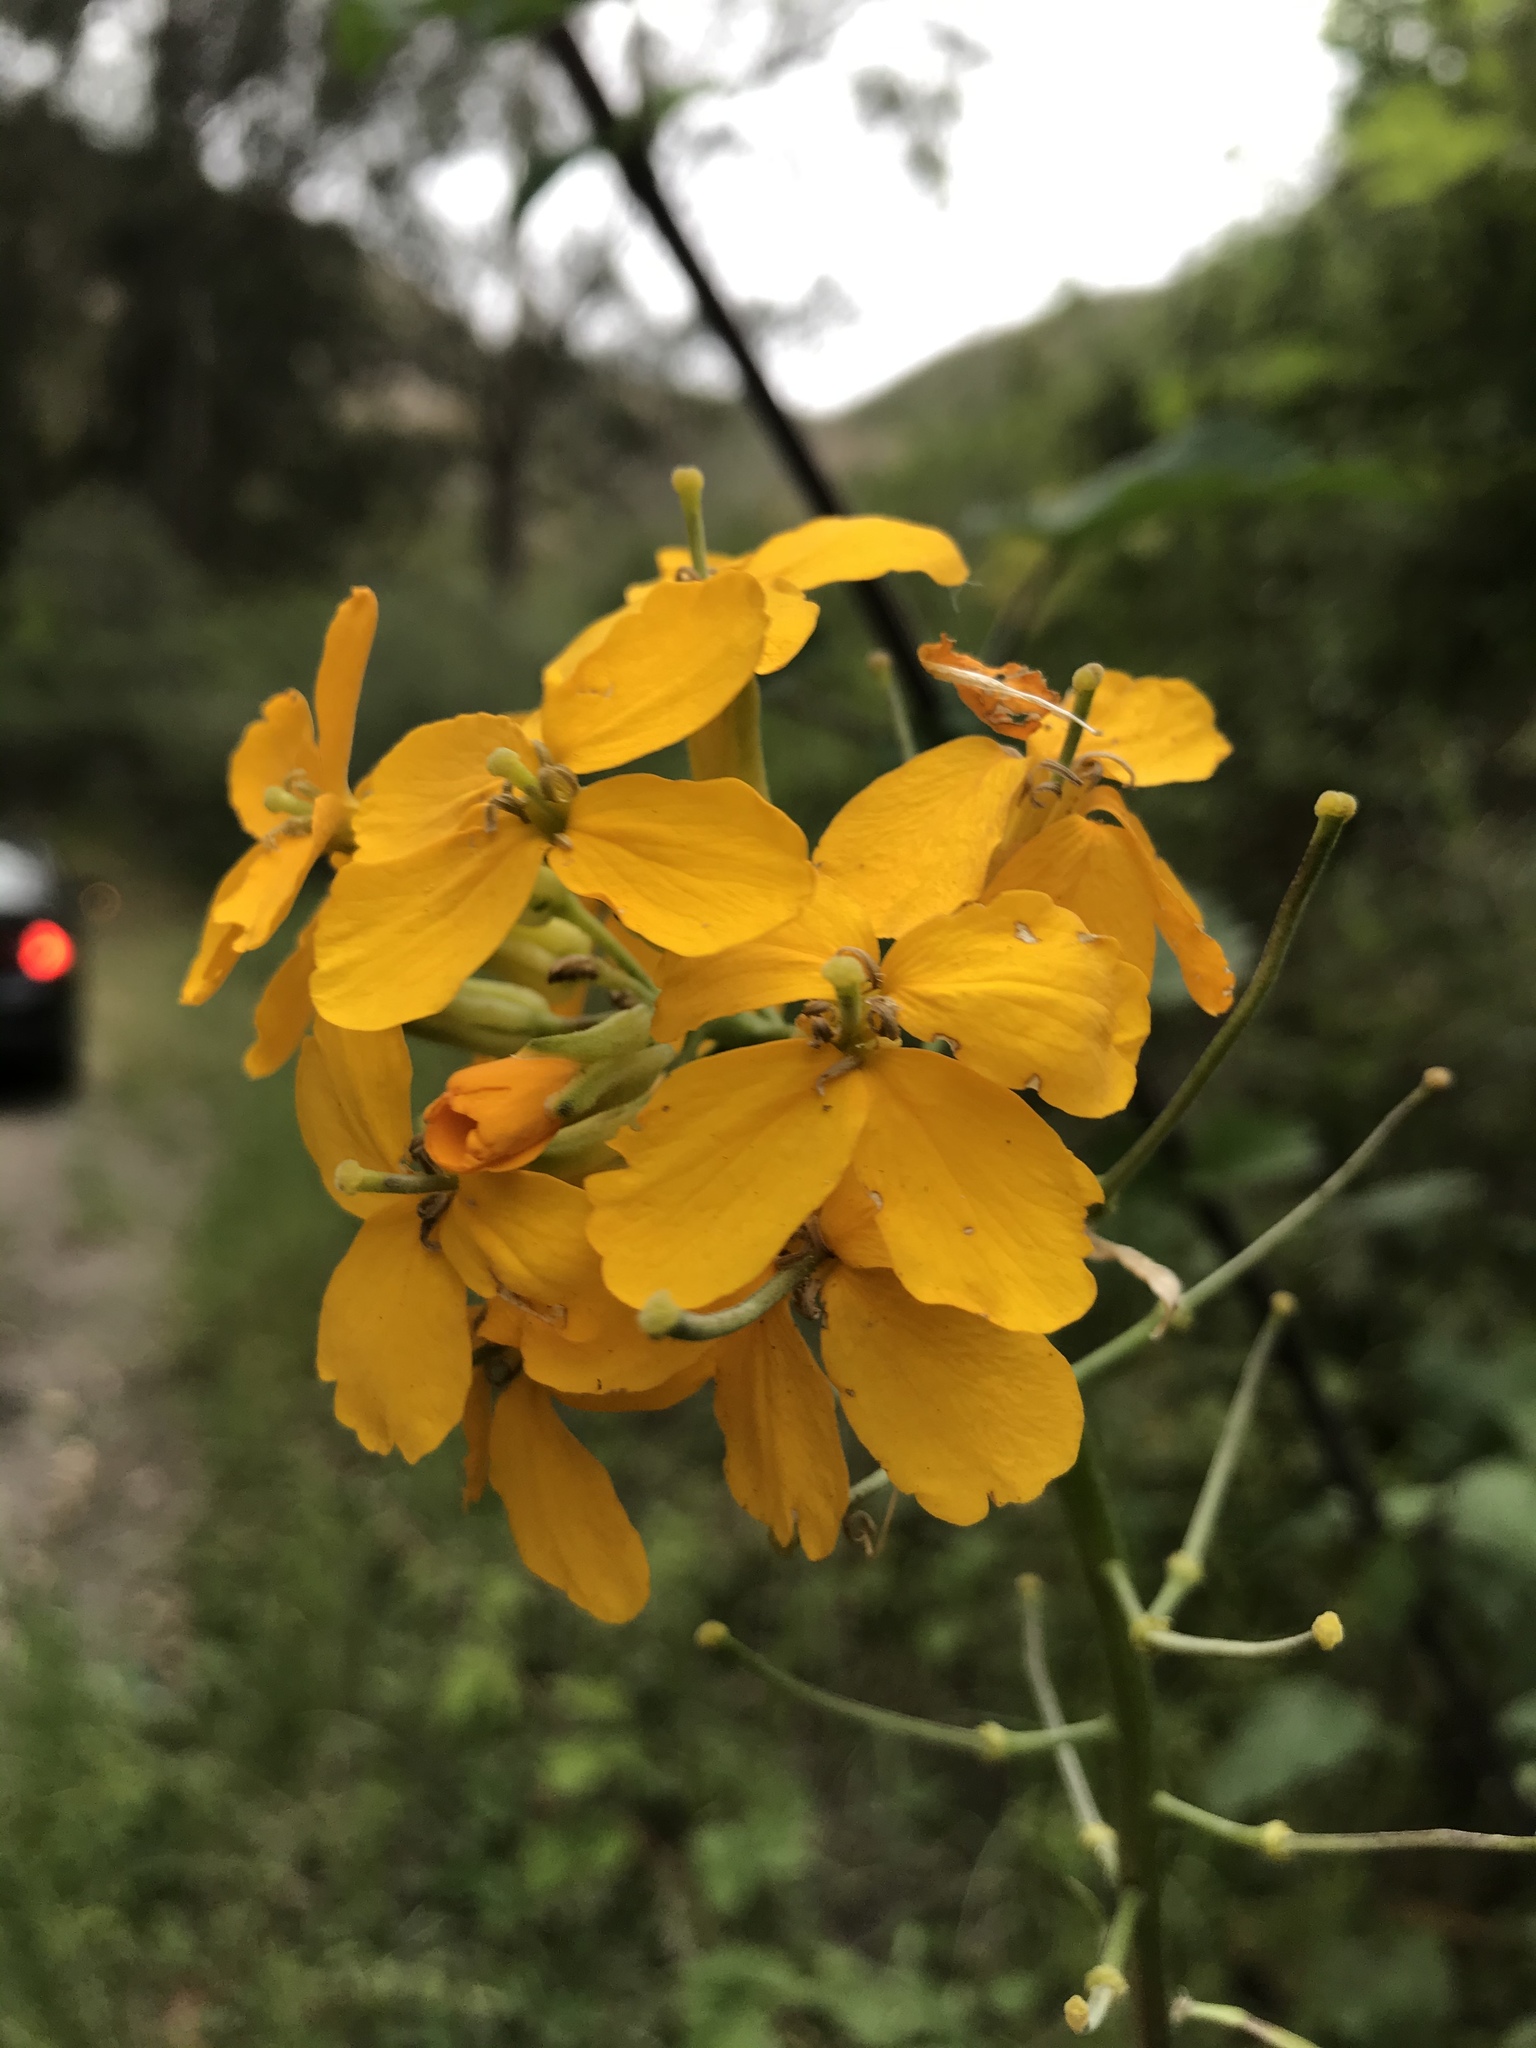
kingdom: Plantae
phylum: Tracheophyta
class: Magnoliopsida
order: Brassicales
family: Brassicaceae
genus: Erysimum
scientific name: Erysimum capitatum
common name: Western wallflower
